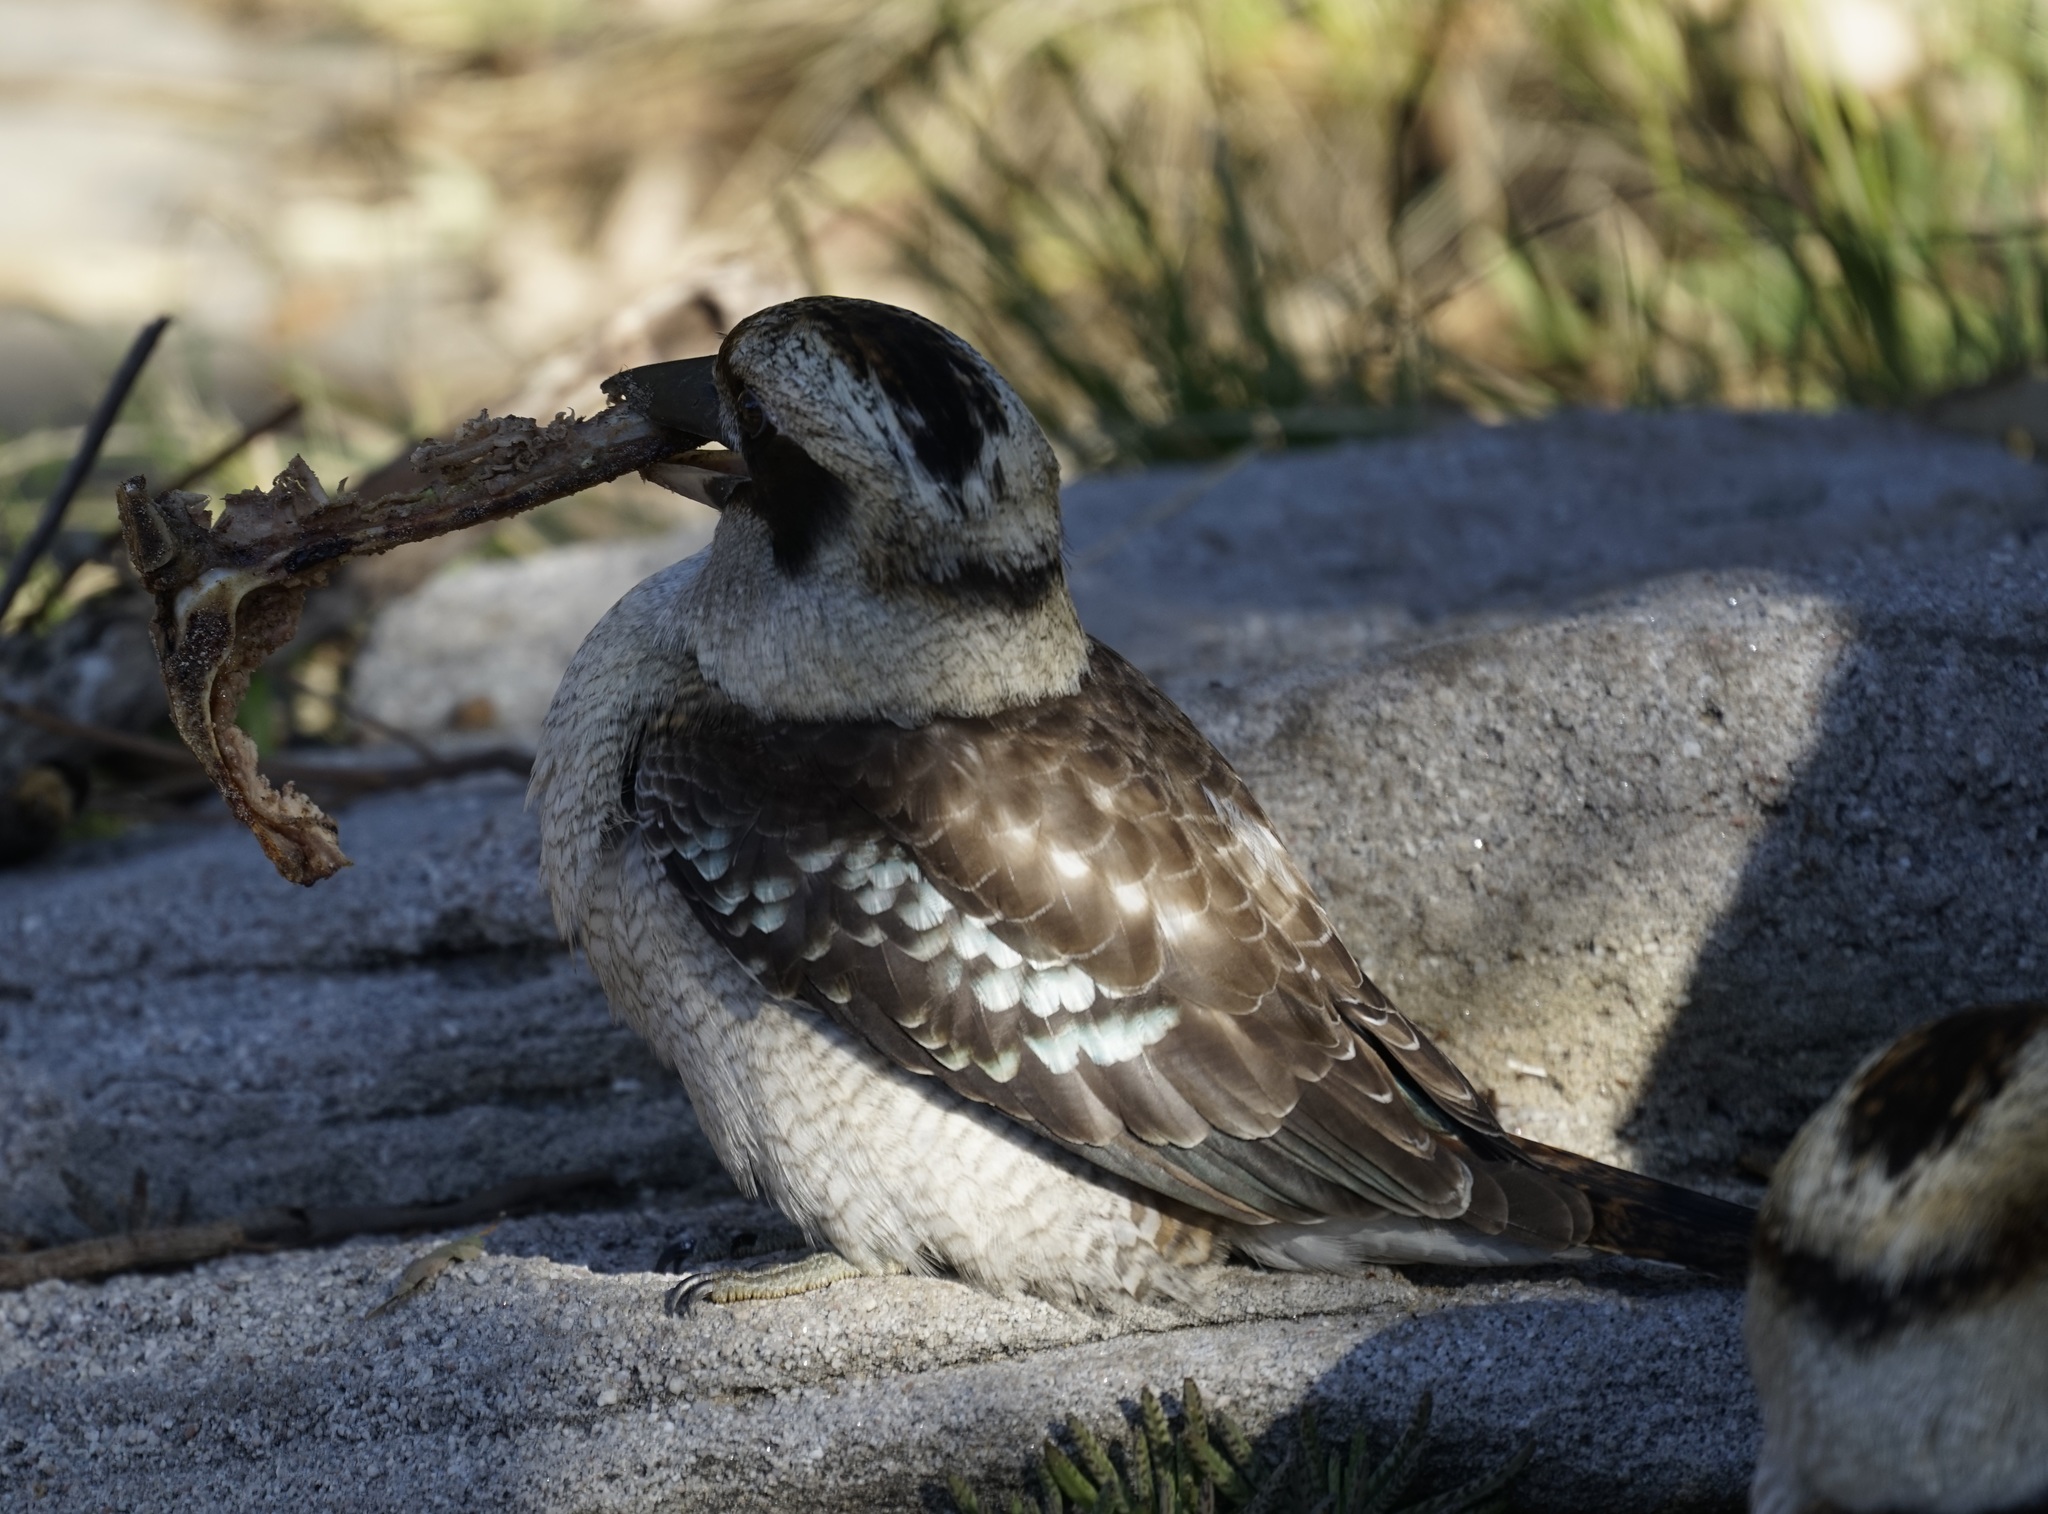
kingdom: Animalia
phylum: Chordata
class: Aves
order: Coraciiformes
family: Alcedinidae
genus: Dacelo
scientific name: Dacelo novaeguineae
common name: Laughing kookaburra
